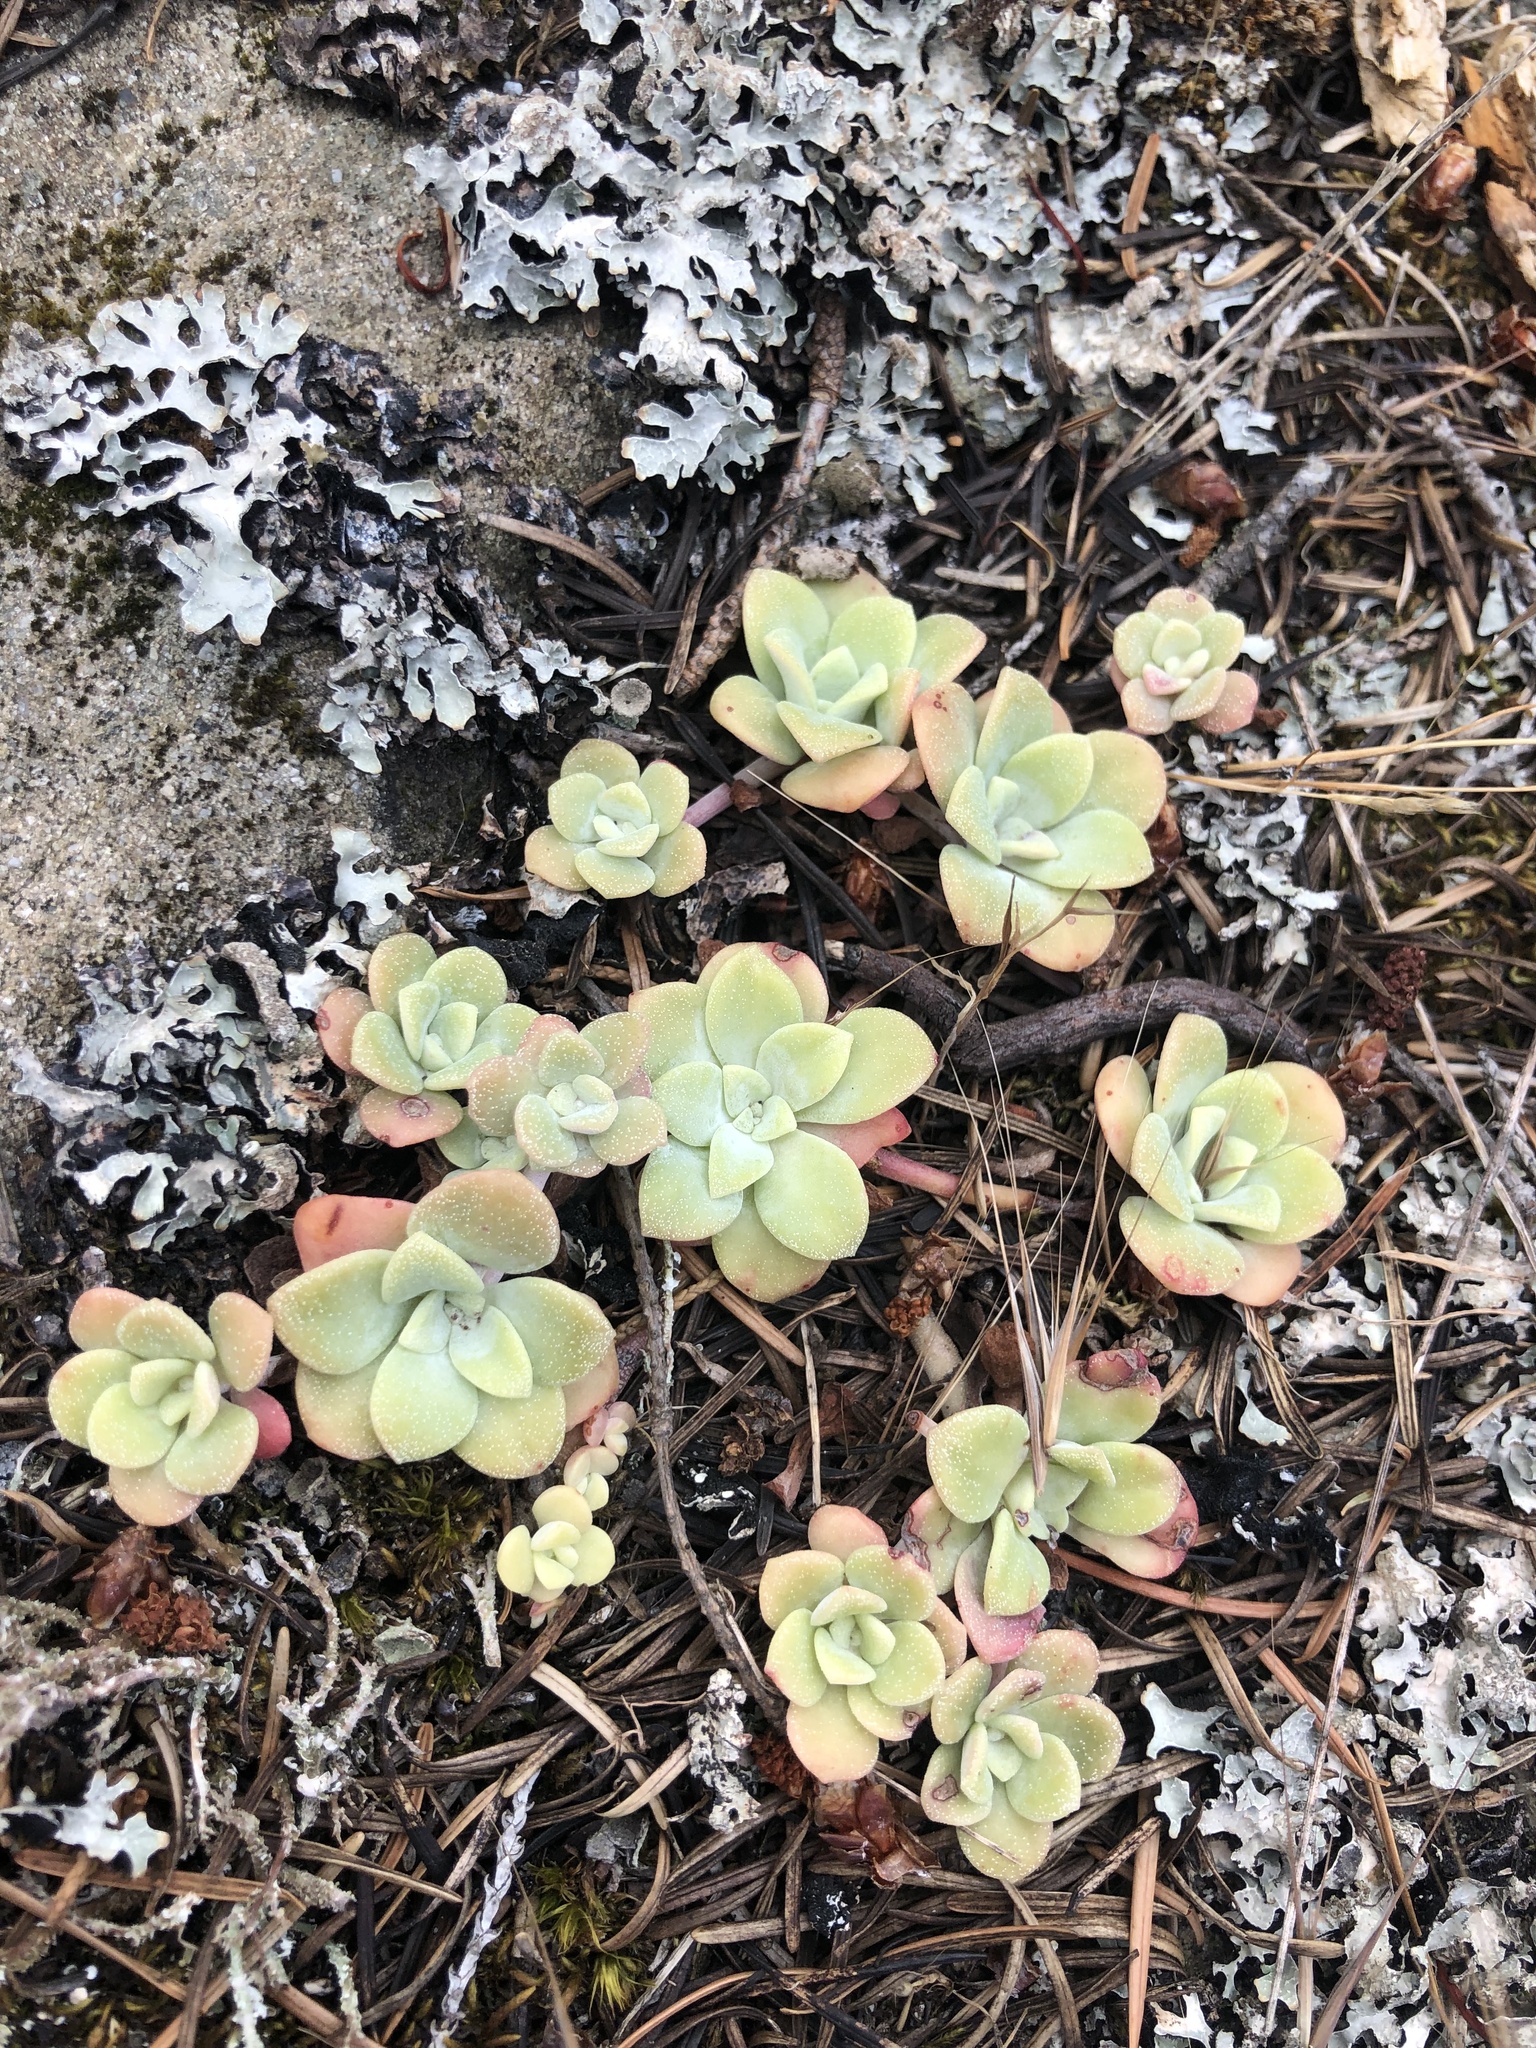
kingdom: Plantae
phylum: Tracheophyta
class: Magnoliopsida
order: Saxifragales
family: Crassulaceae
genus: Sedum
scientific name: Sedum spathulifolium
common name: Colorado stonecrop
